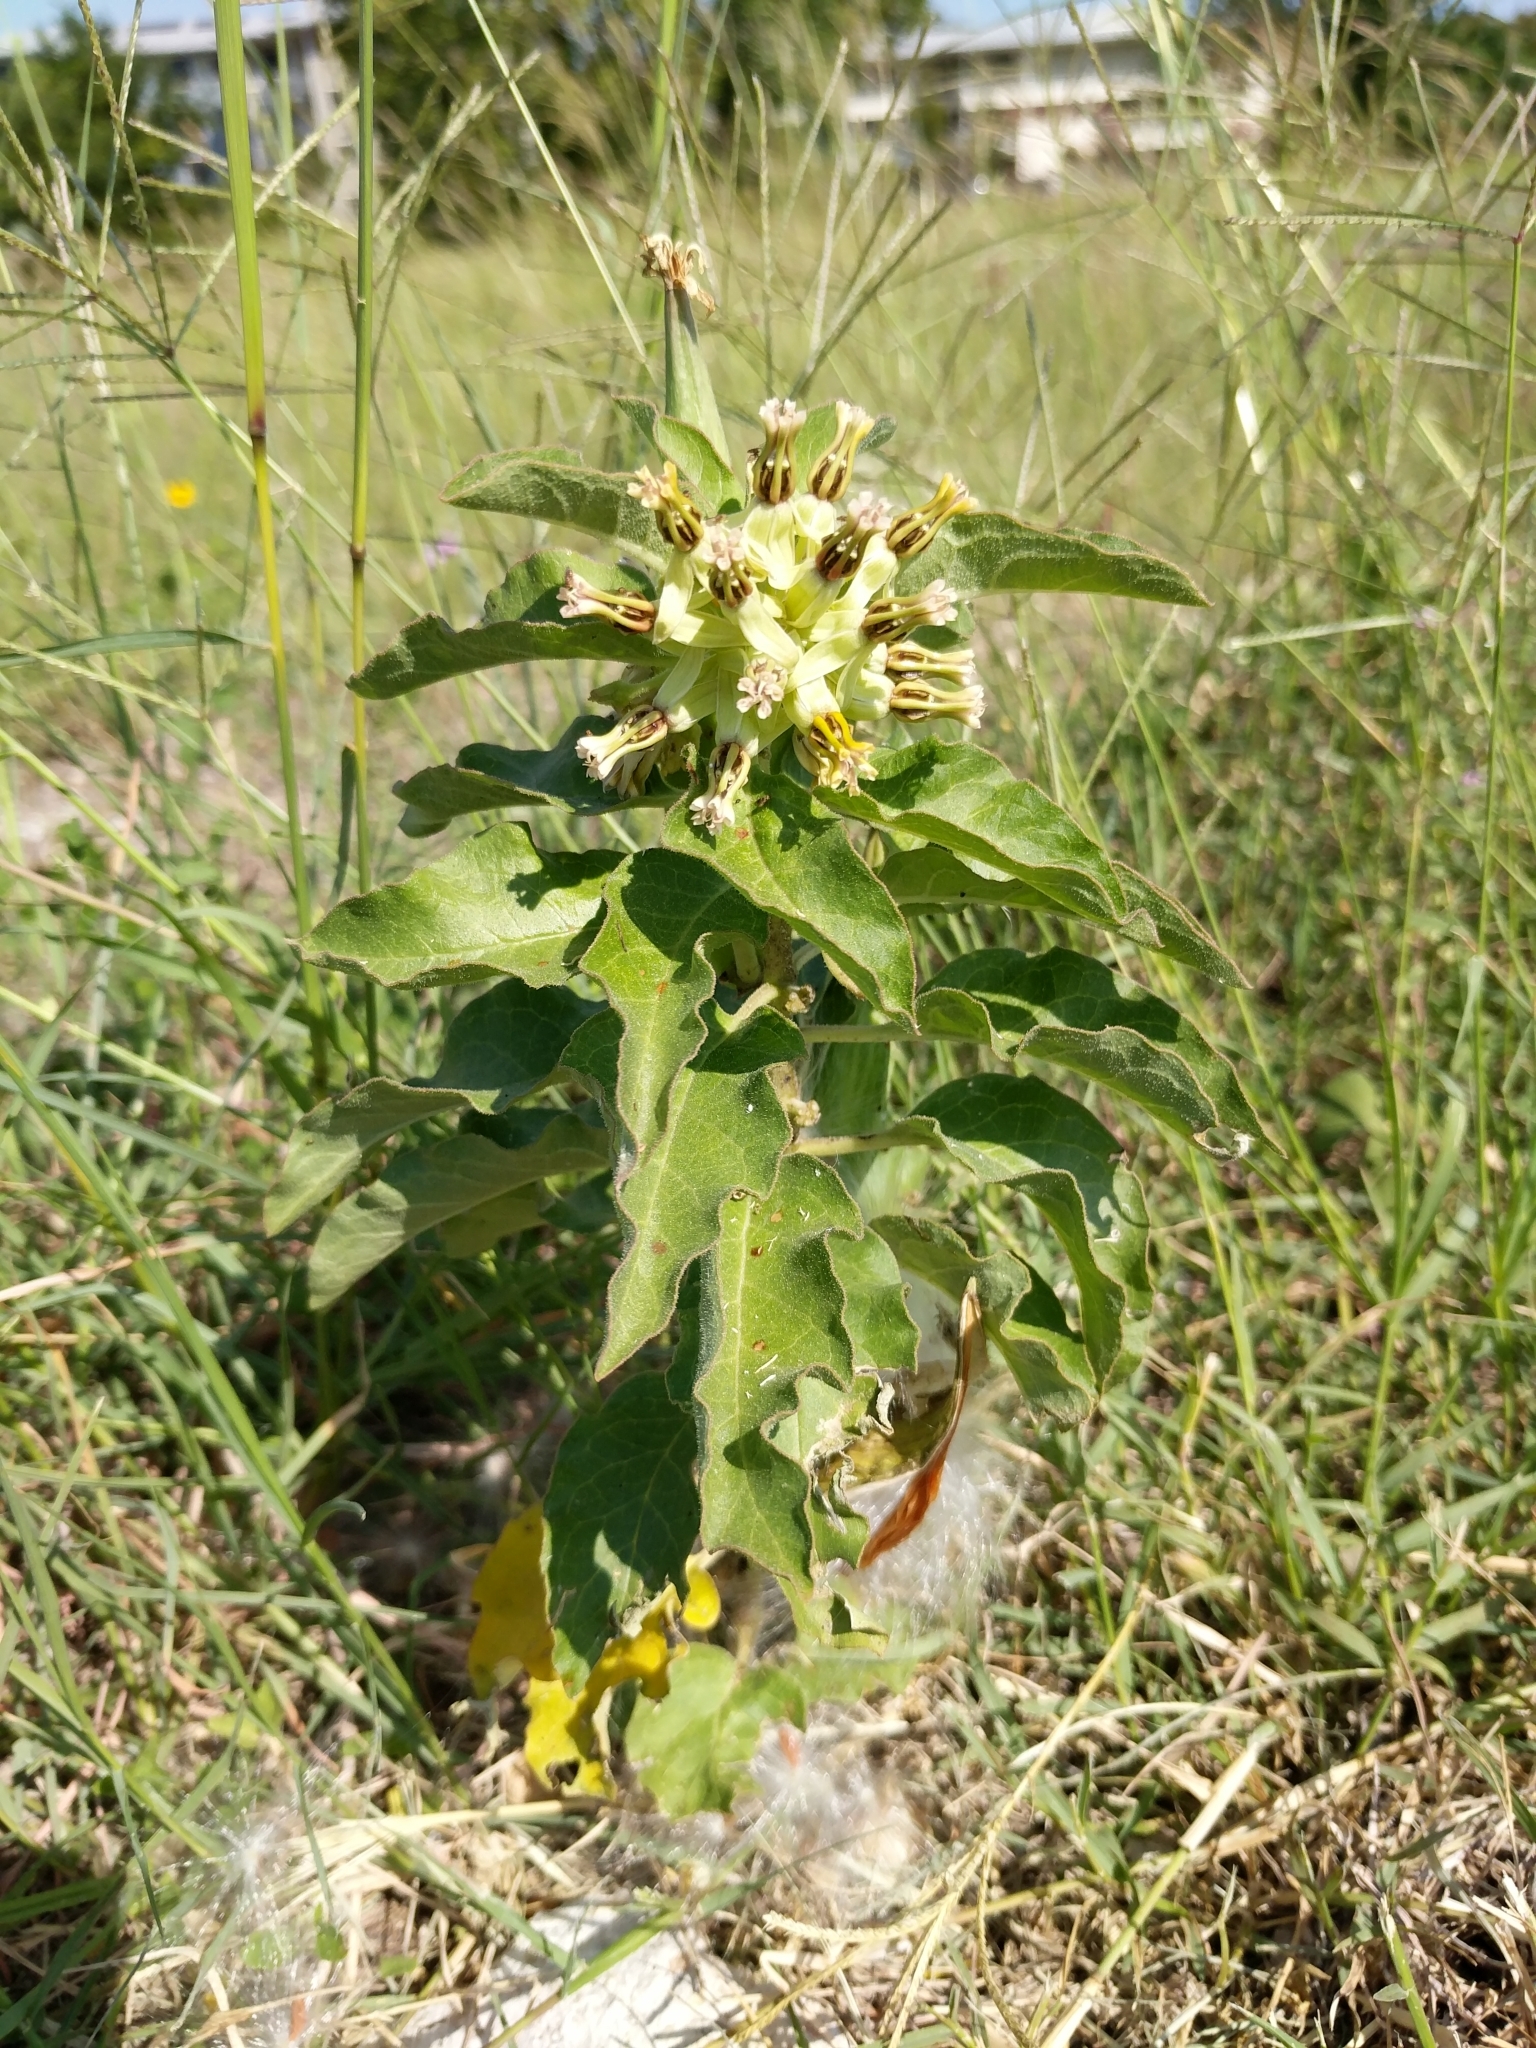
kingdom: Plantae
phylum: Tracheophyta
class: Magnoliopsida
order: Gentianales
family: Apocynaceae
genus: Asclepias
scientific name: Asclepias oenotheroides
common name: Zizotes milkweed
